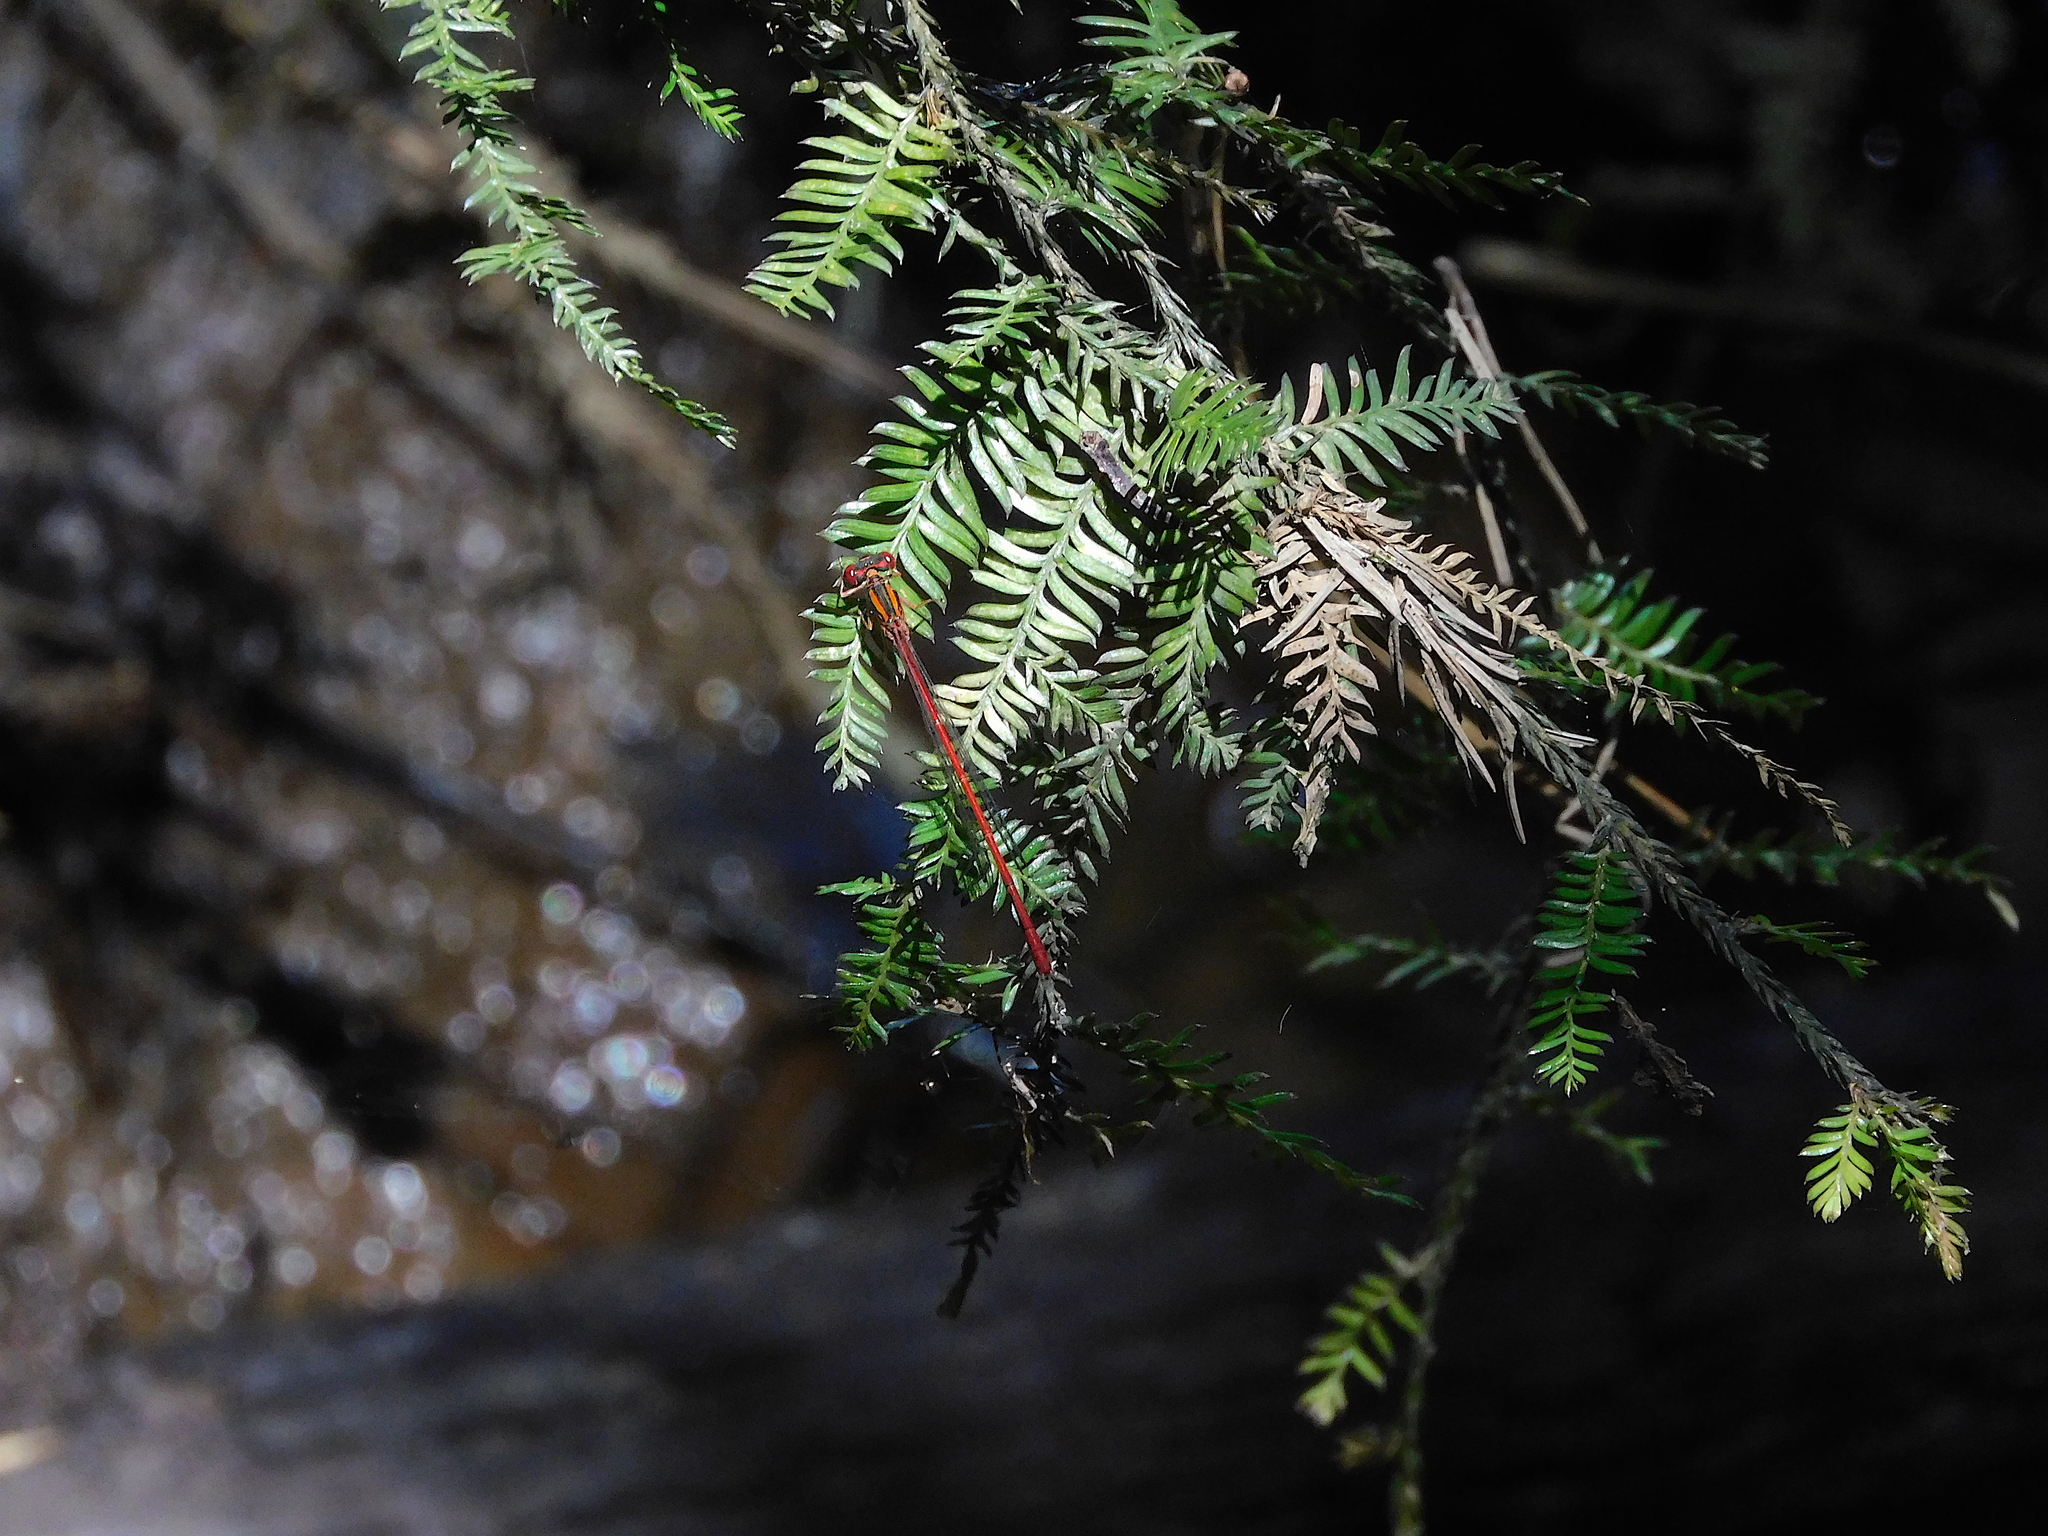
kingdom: Animalia
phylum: Arthropoda
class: Insecta
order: Odonata
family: Coenagrionidae
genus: Xanthocnemis
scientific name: Xanthocnemis zealandica
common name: Common redcoat damselfly
